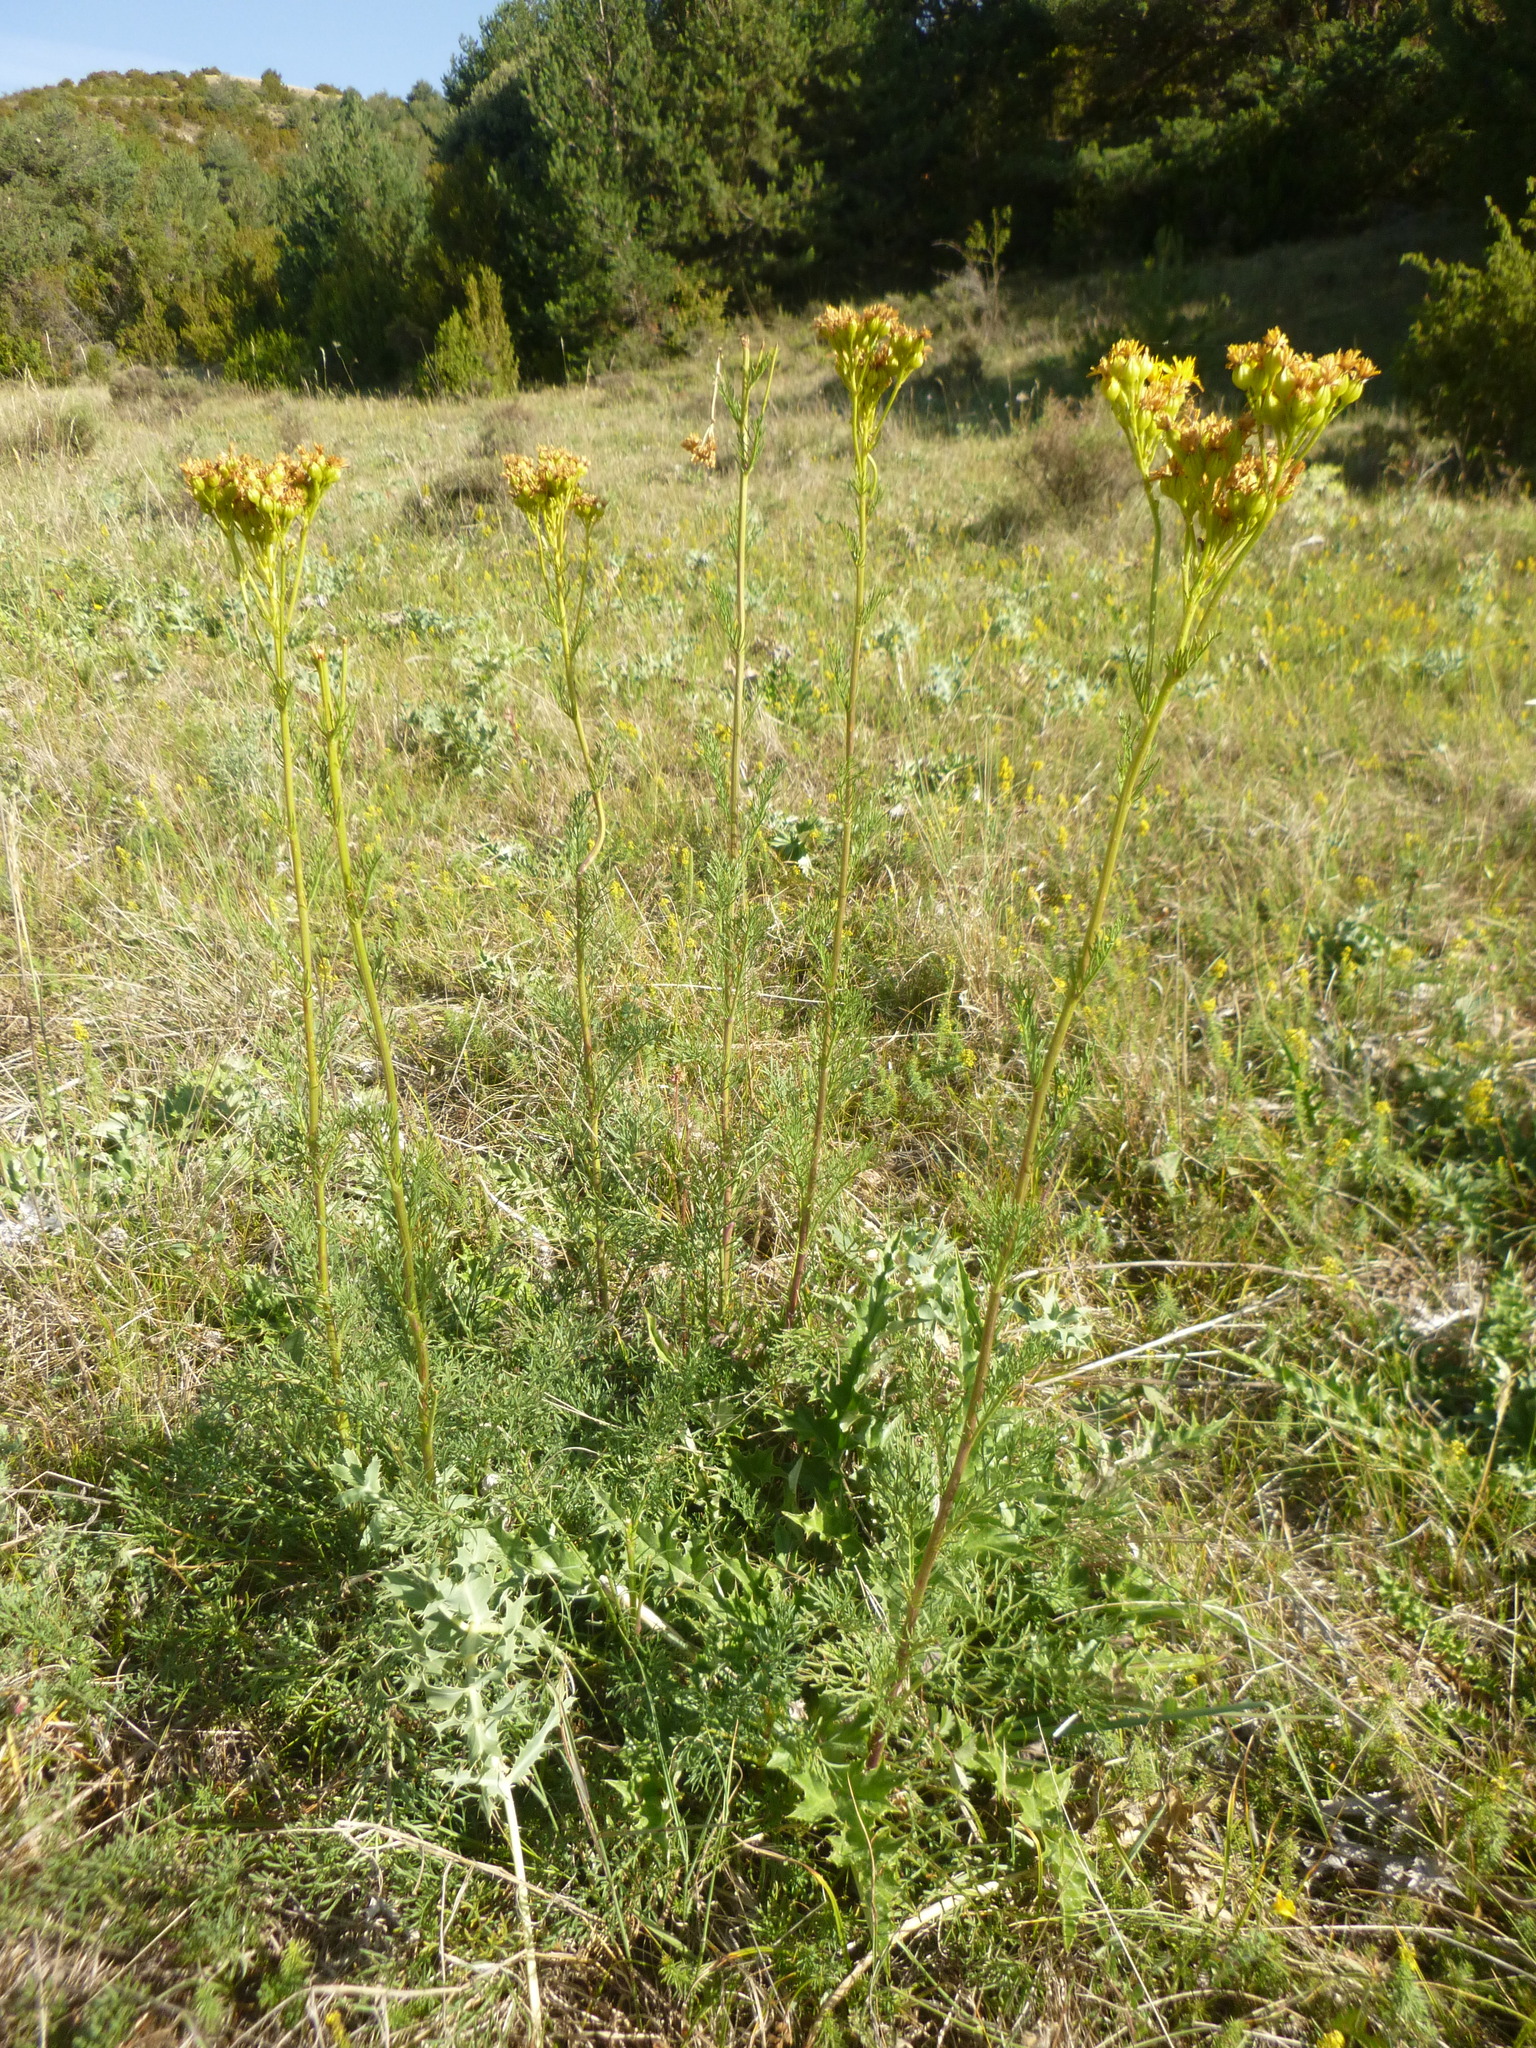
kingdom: Plantae
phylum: Tracheophyta
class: Magnoliopsida
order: Asterales
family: Asteraceae
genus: Jacobaea
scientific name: Jacobaea adonidifolia
